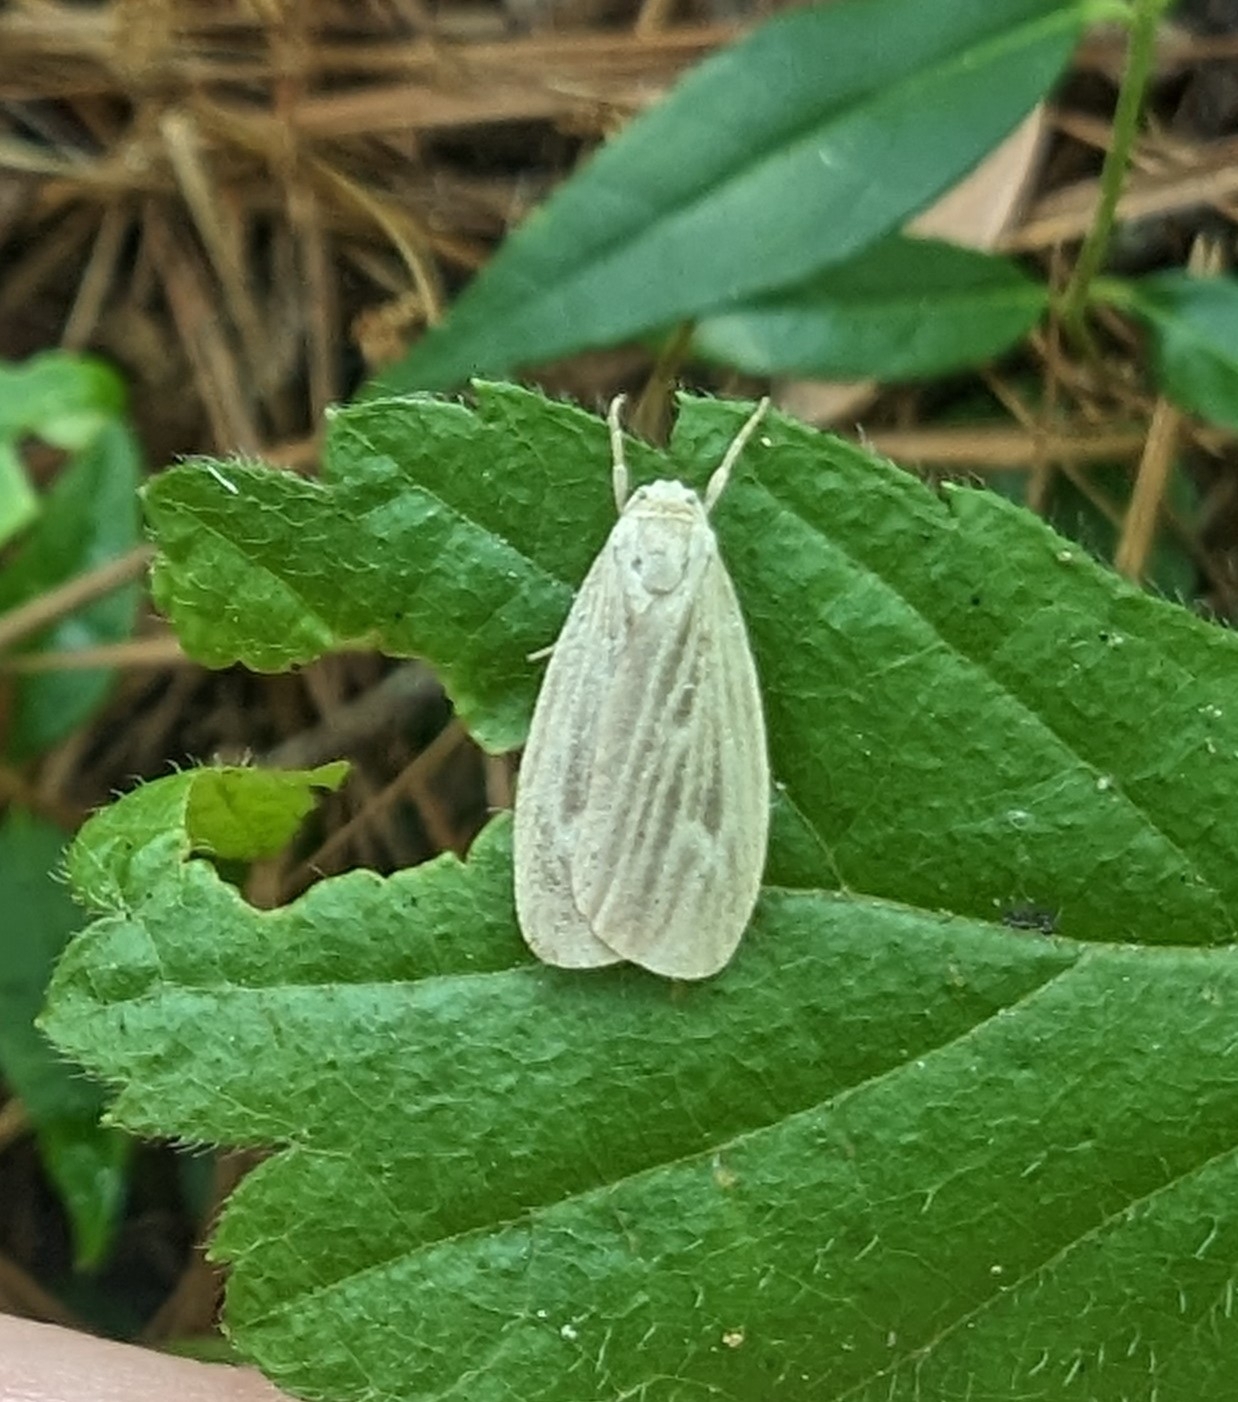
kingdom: Animalia
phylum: Arthropoda
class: Insecta
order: Lepidoptera
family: Erebidae
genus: Crambidia
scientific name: Crambidia pallida
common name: Pale lichen moth
